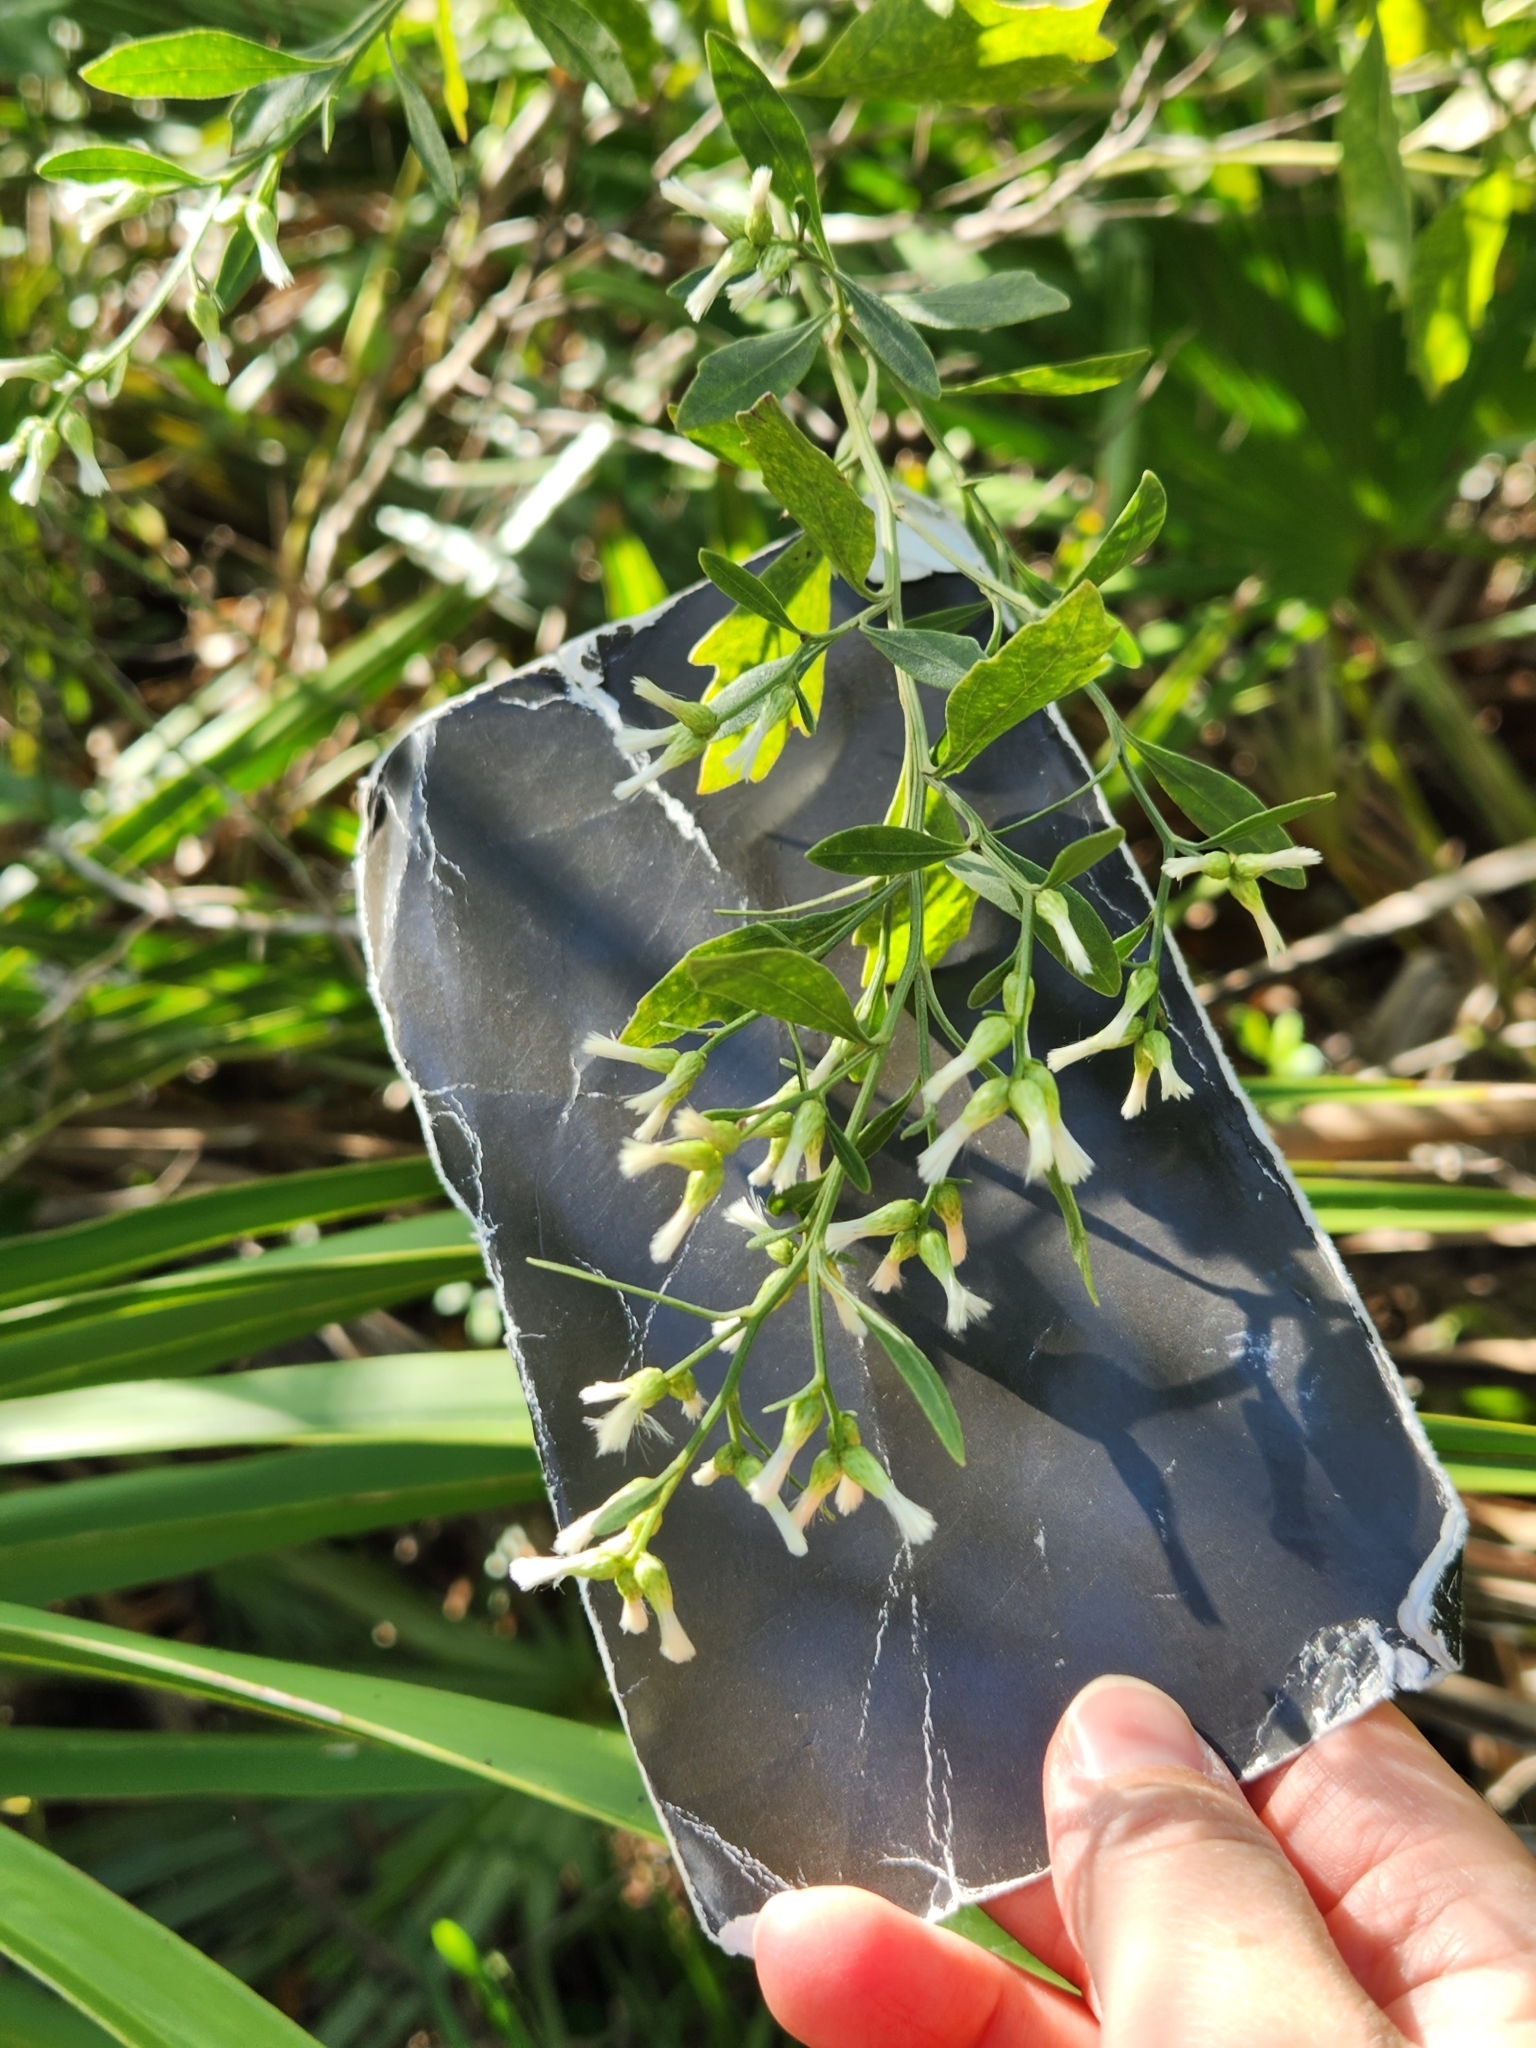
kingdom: Plantae
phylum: Tracheophyta
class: Magnoliopsida
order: Asterales
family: Asteraceae
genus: Baccharis
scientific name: Baccharis halimifolia
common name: Eastern baccharis
